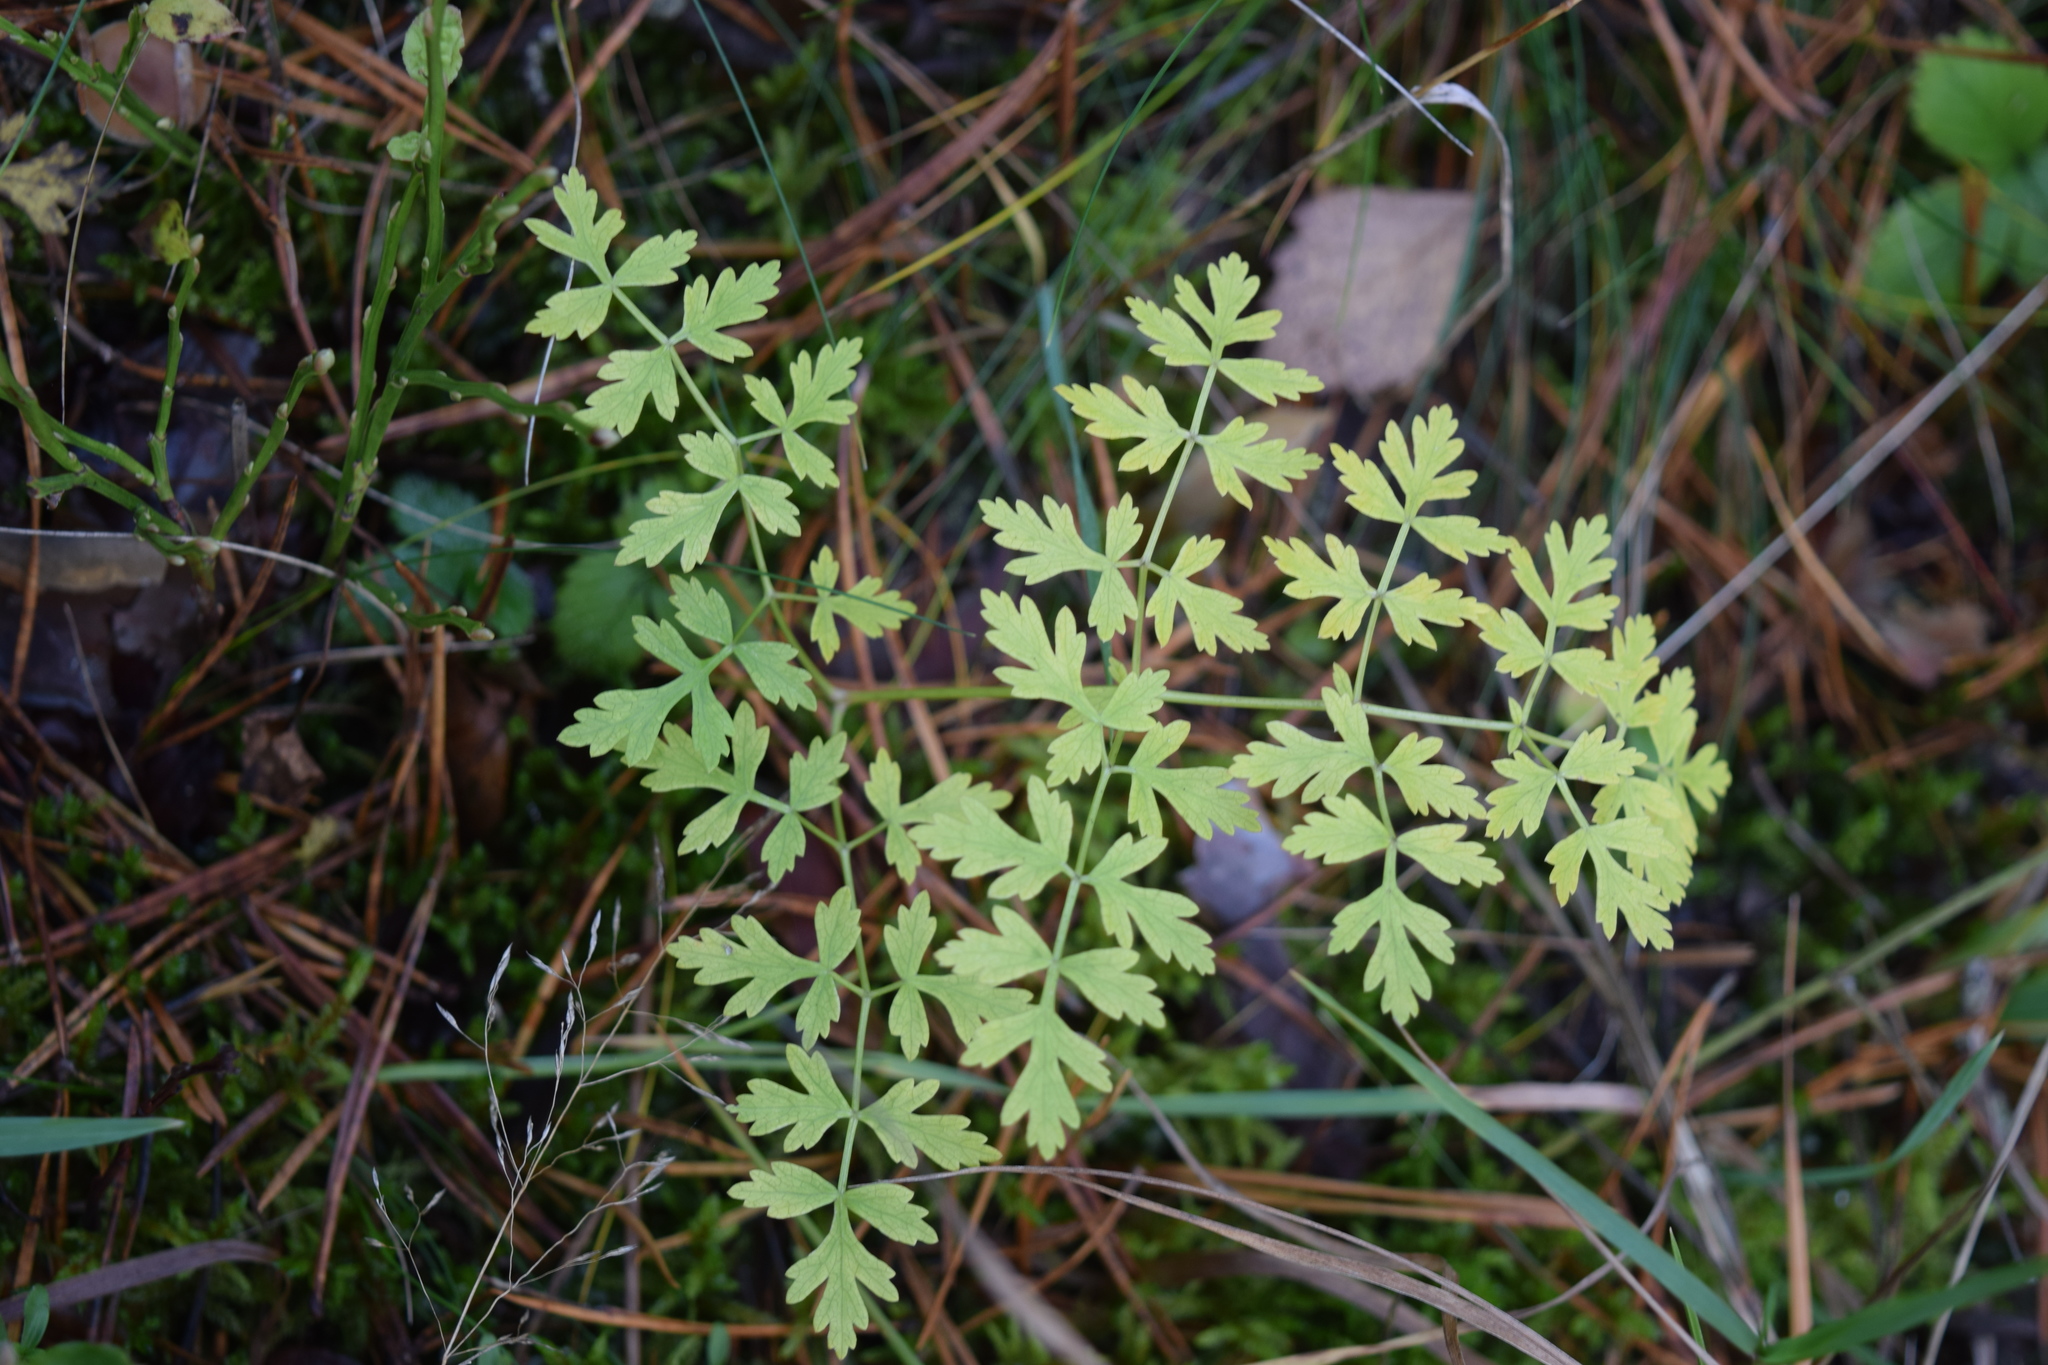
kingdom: Plantae
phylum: Tracheophyta
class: Magnoliopsida
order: Apiales
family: Apiaceae
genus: Oreoselinum
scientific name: Oreoselinum nigrum
